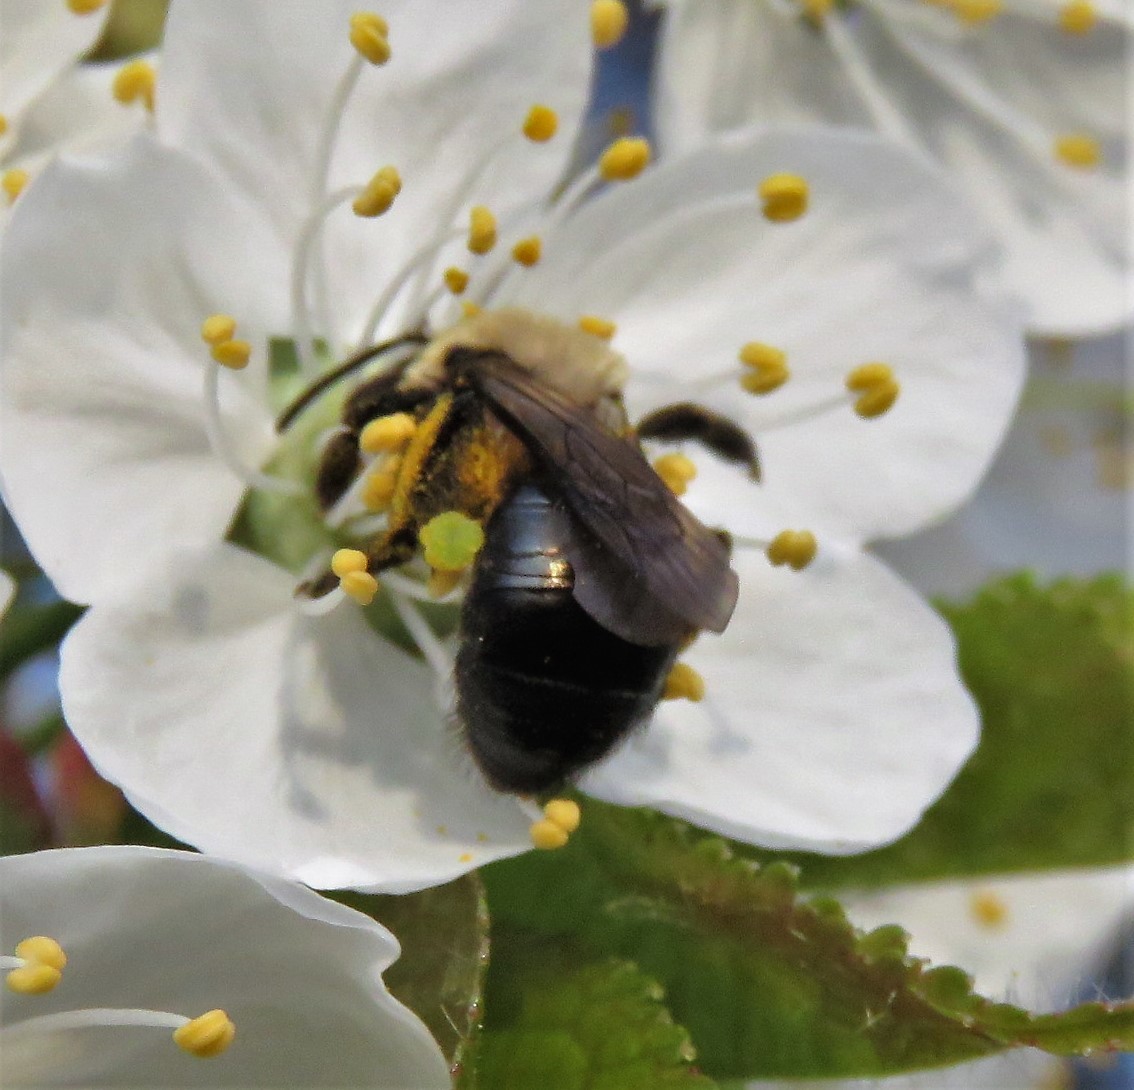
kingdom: Animalia
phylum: Arthropoda
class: Insecta
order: Hymenoptera
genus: Melandrena
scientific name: Melandrena
